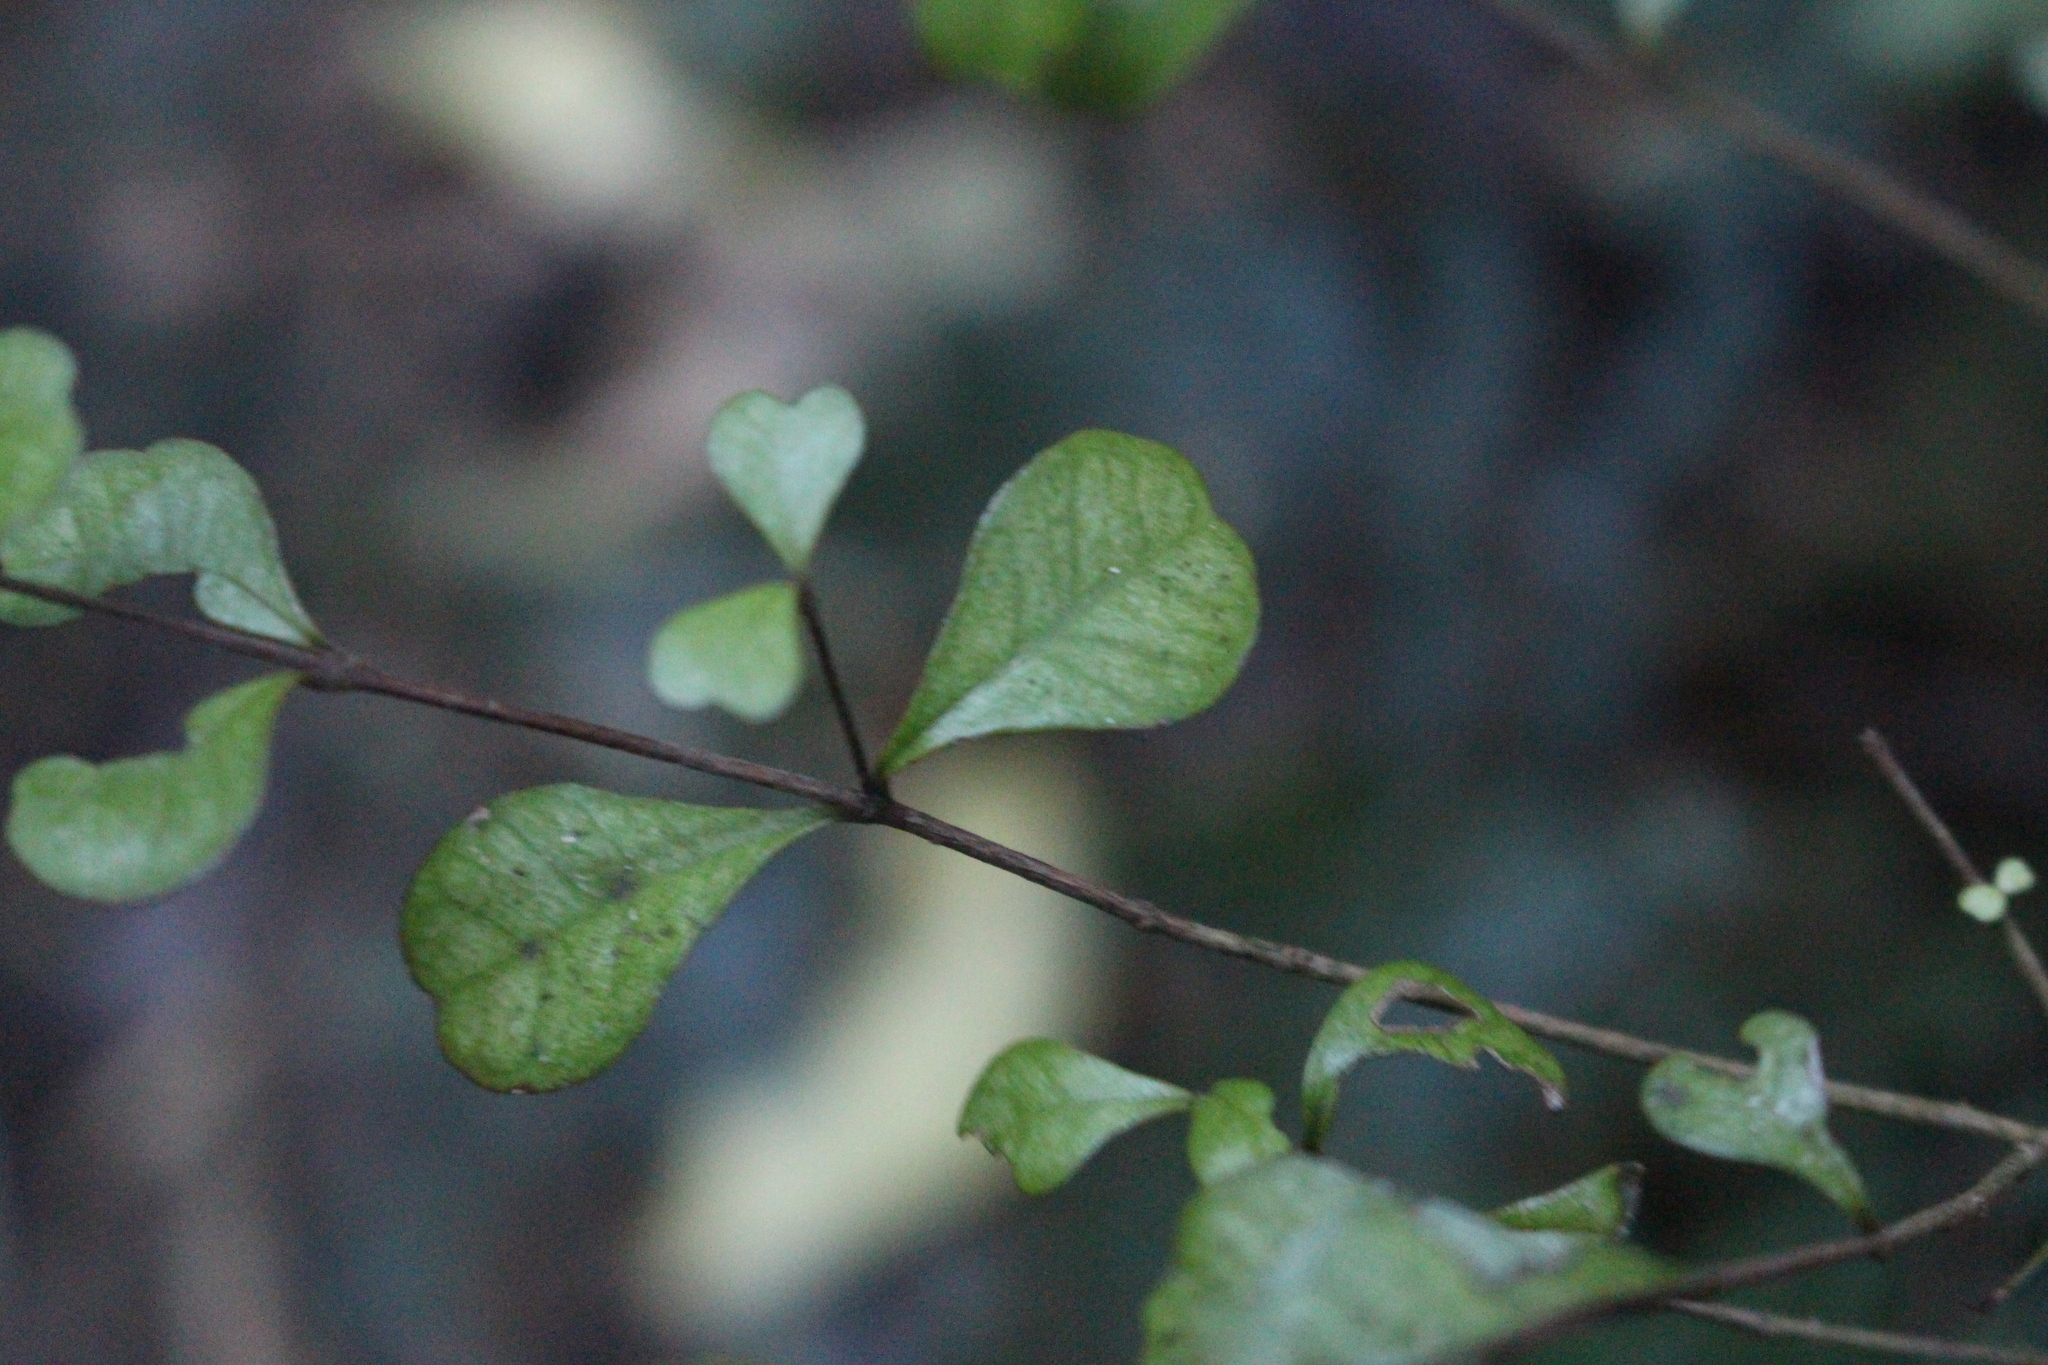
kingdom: Plantae
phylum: Tracheophyta
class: Magnoliopsida
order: Myrtales
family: Myrtaceae
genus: Lophomyrtus
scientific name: Lophomyrtus obcordata
